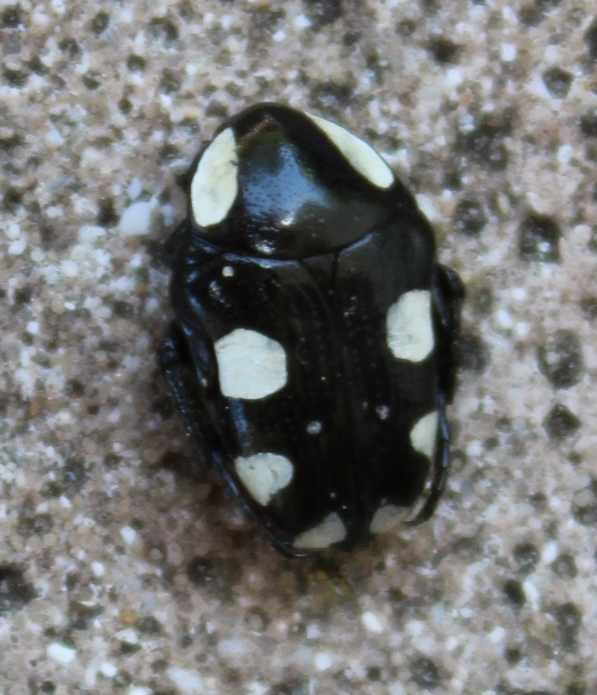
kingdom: Animalia
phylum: Arthropoda
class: Insecta
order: Coleoptera
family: Scarabaeidae
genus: Mausoleopsis
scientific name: Mausoleopsis amabilis
